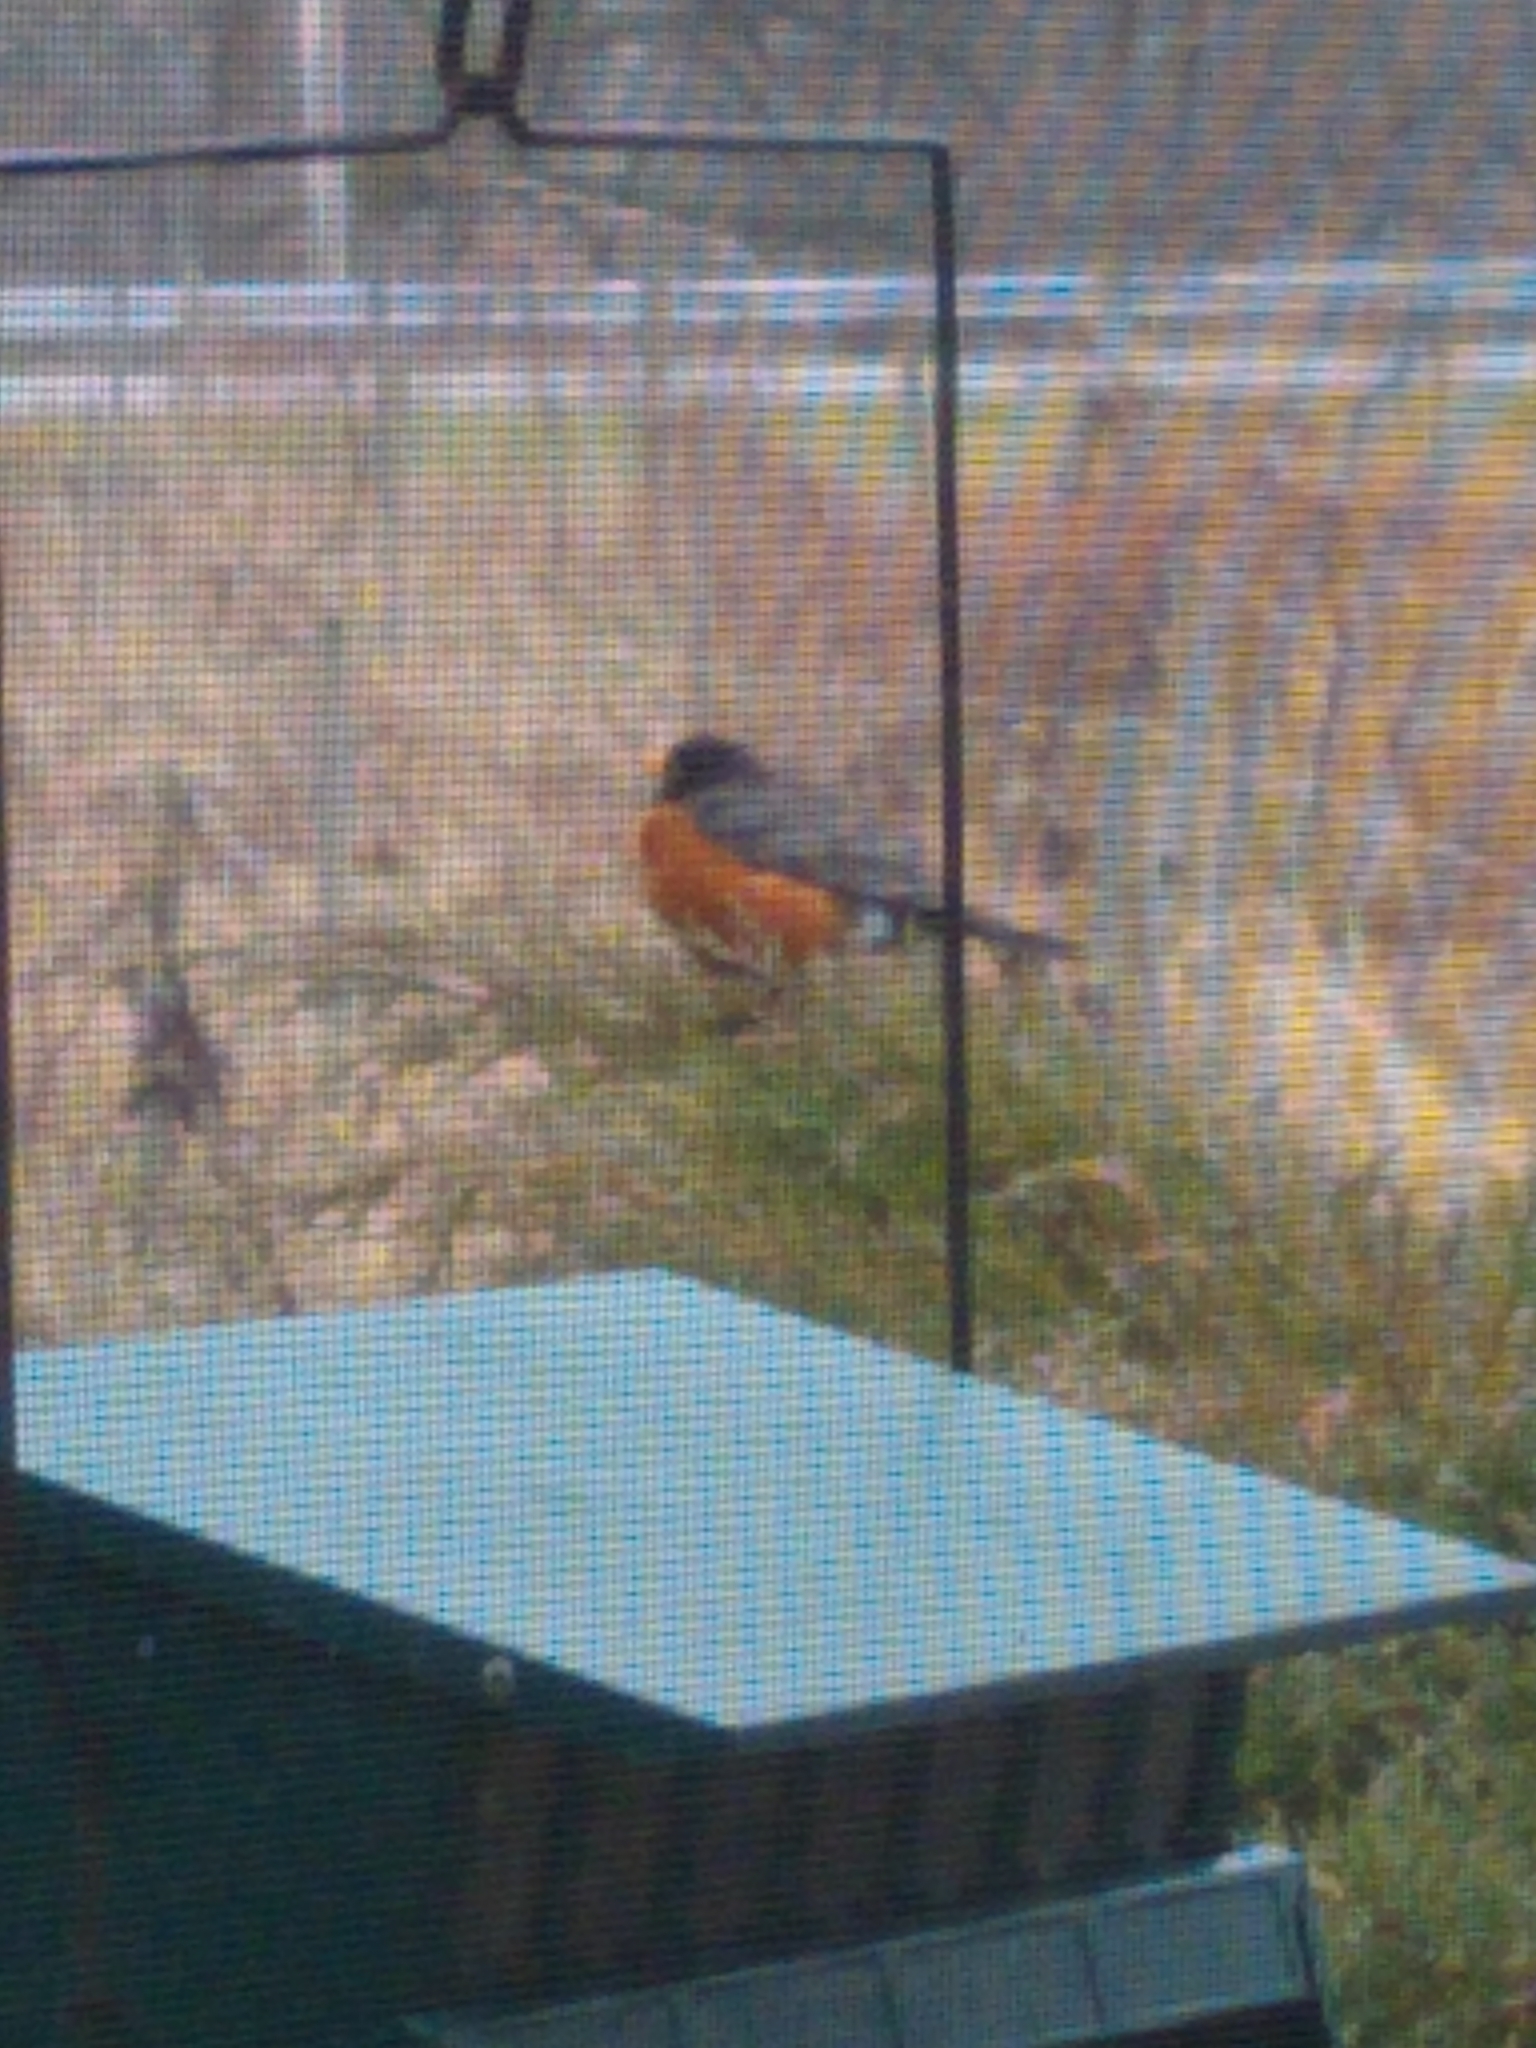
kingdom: Animalia
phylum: Chordata
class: Aves
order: Passeriformes
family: Turdidae
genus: Turdus
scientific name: Turdus migratorius
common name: American robin
